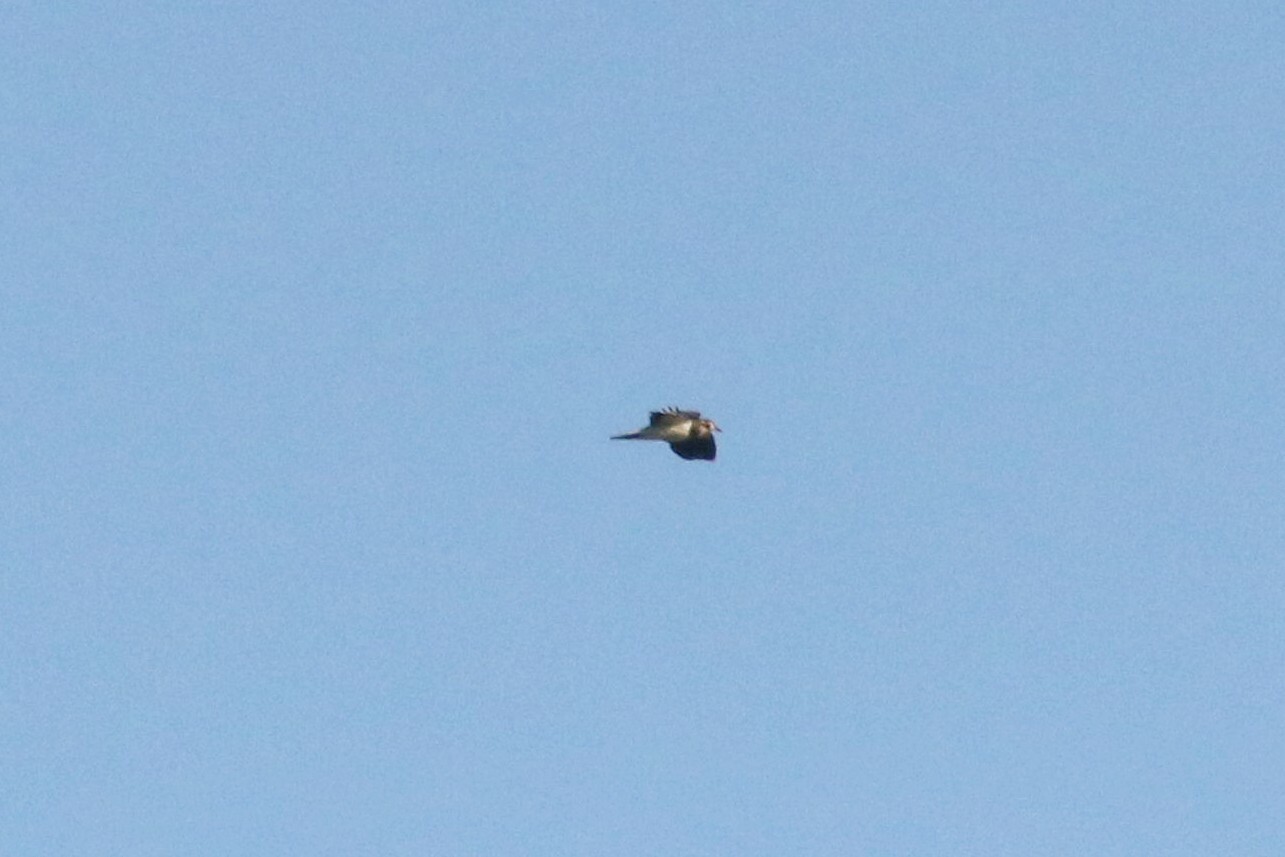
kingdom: Animalia
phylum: Chordata
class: Aves
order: Charadriiformes
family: Charadriidae
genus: Vanellus
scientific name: Vanellus vanellus
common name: Northern lapwing
